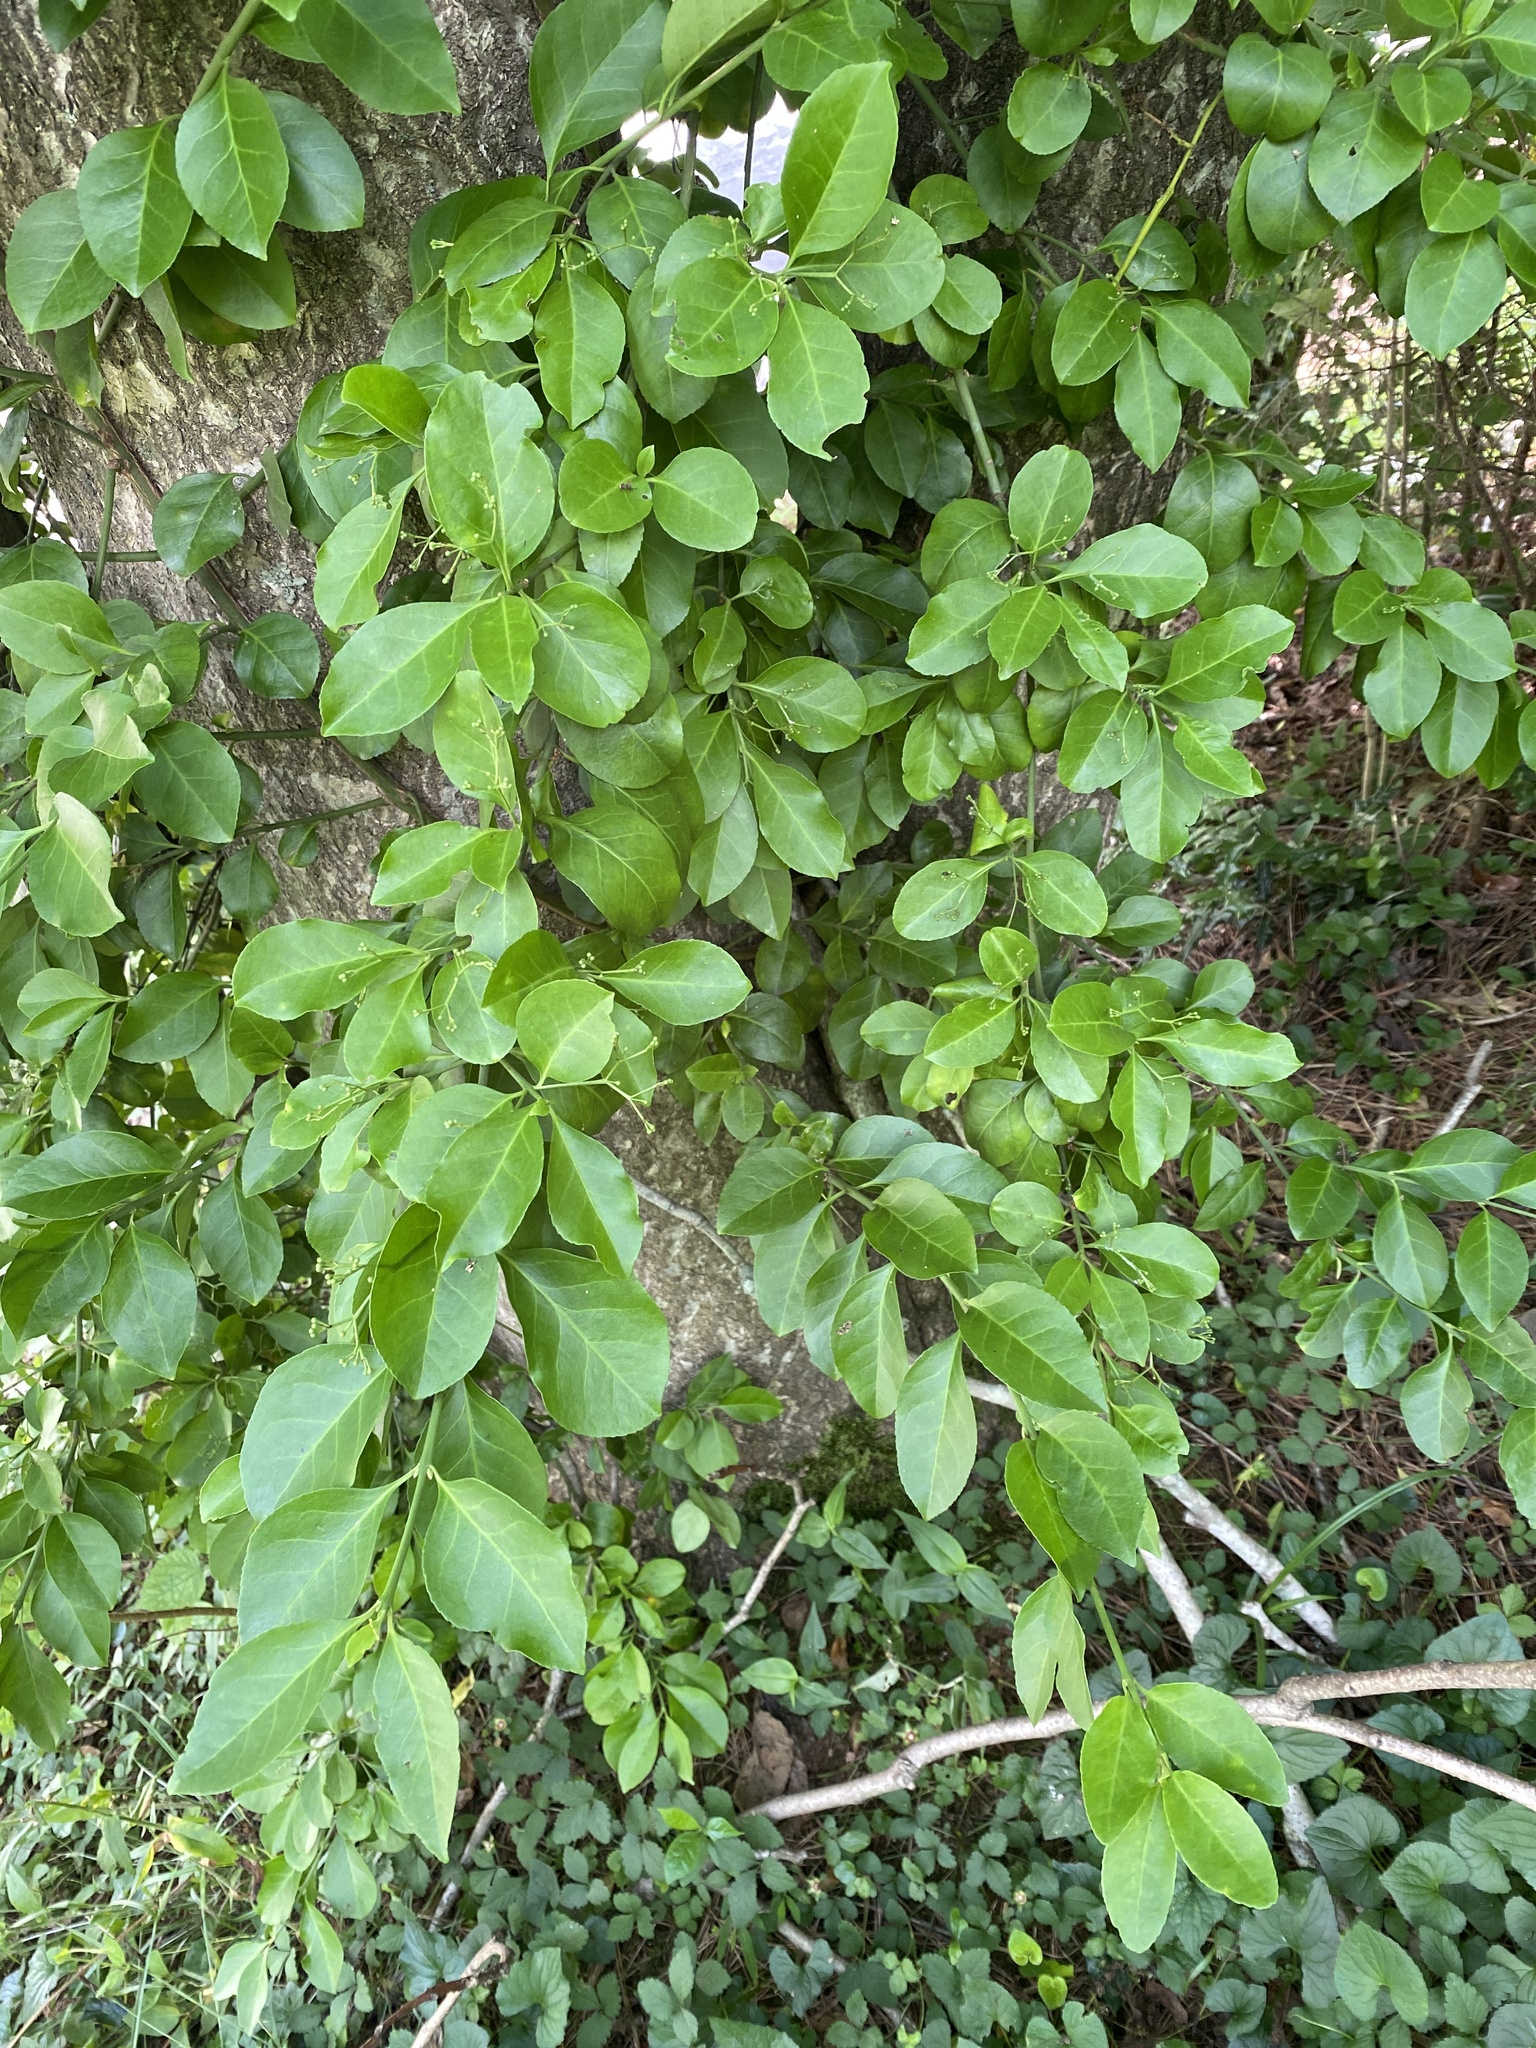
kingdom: Plantae
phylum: Tracheophyta
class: Magnoliopsida
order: Celastrales
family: Celastraceae
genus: Euonymus
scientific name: Euonymus fortunei
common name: Climbing euonymus
